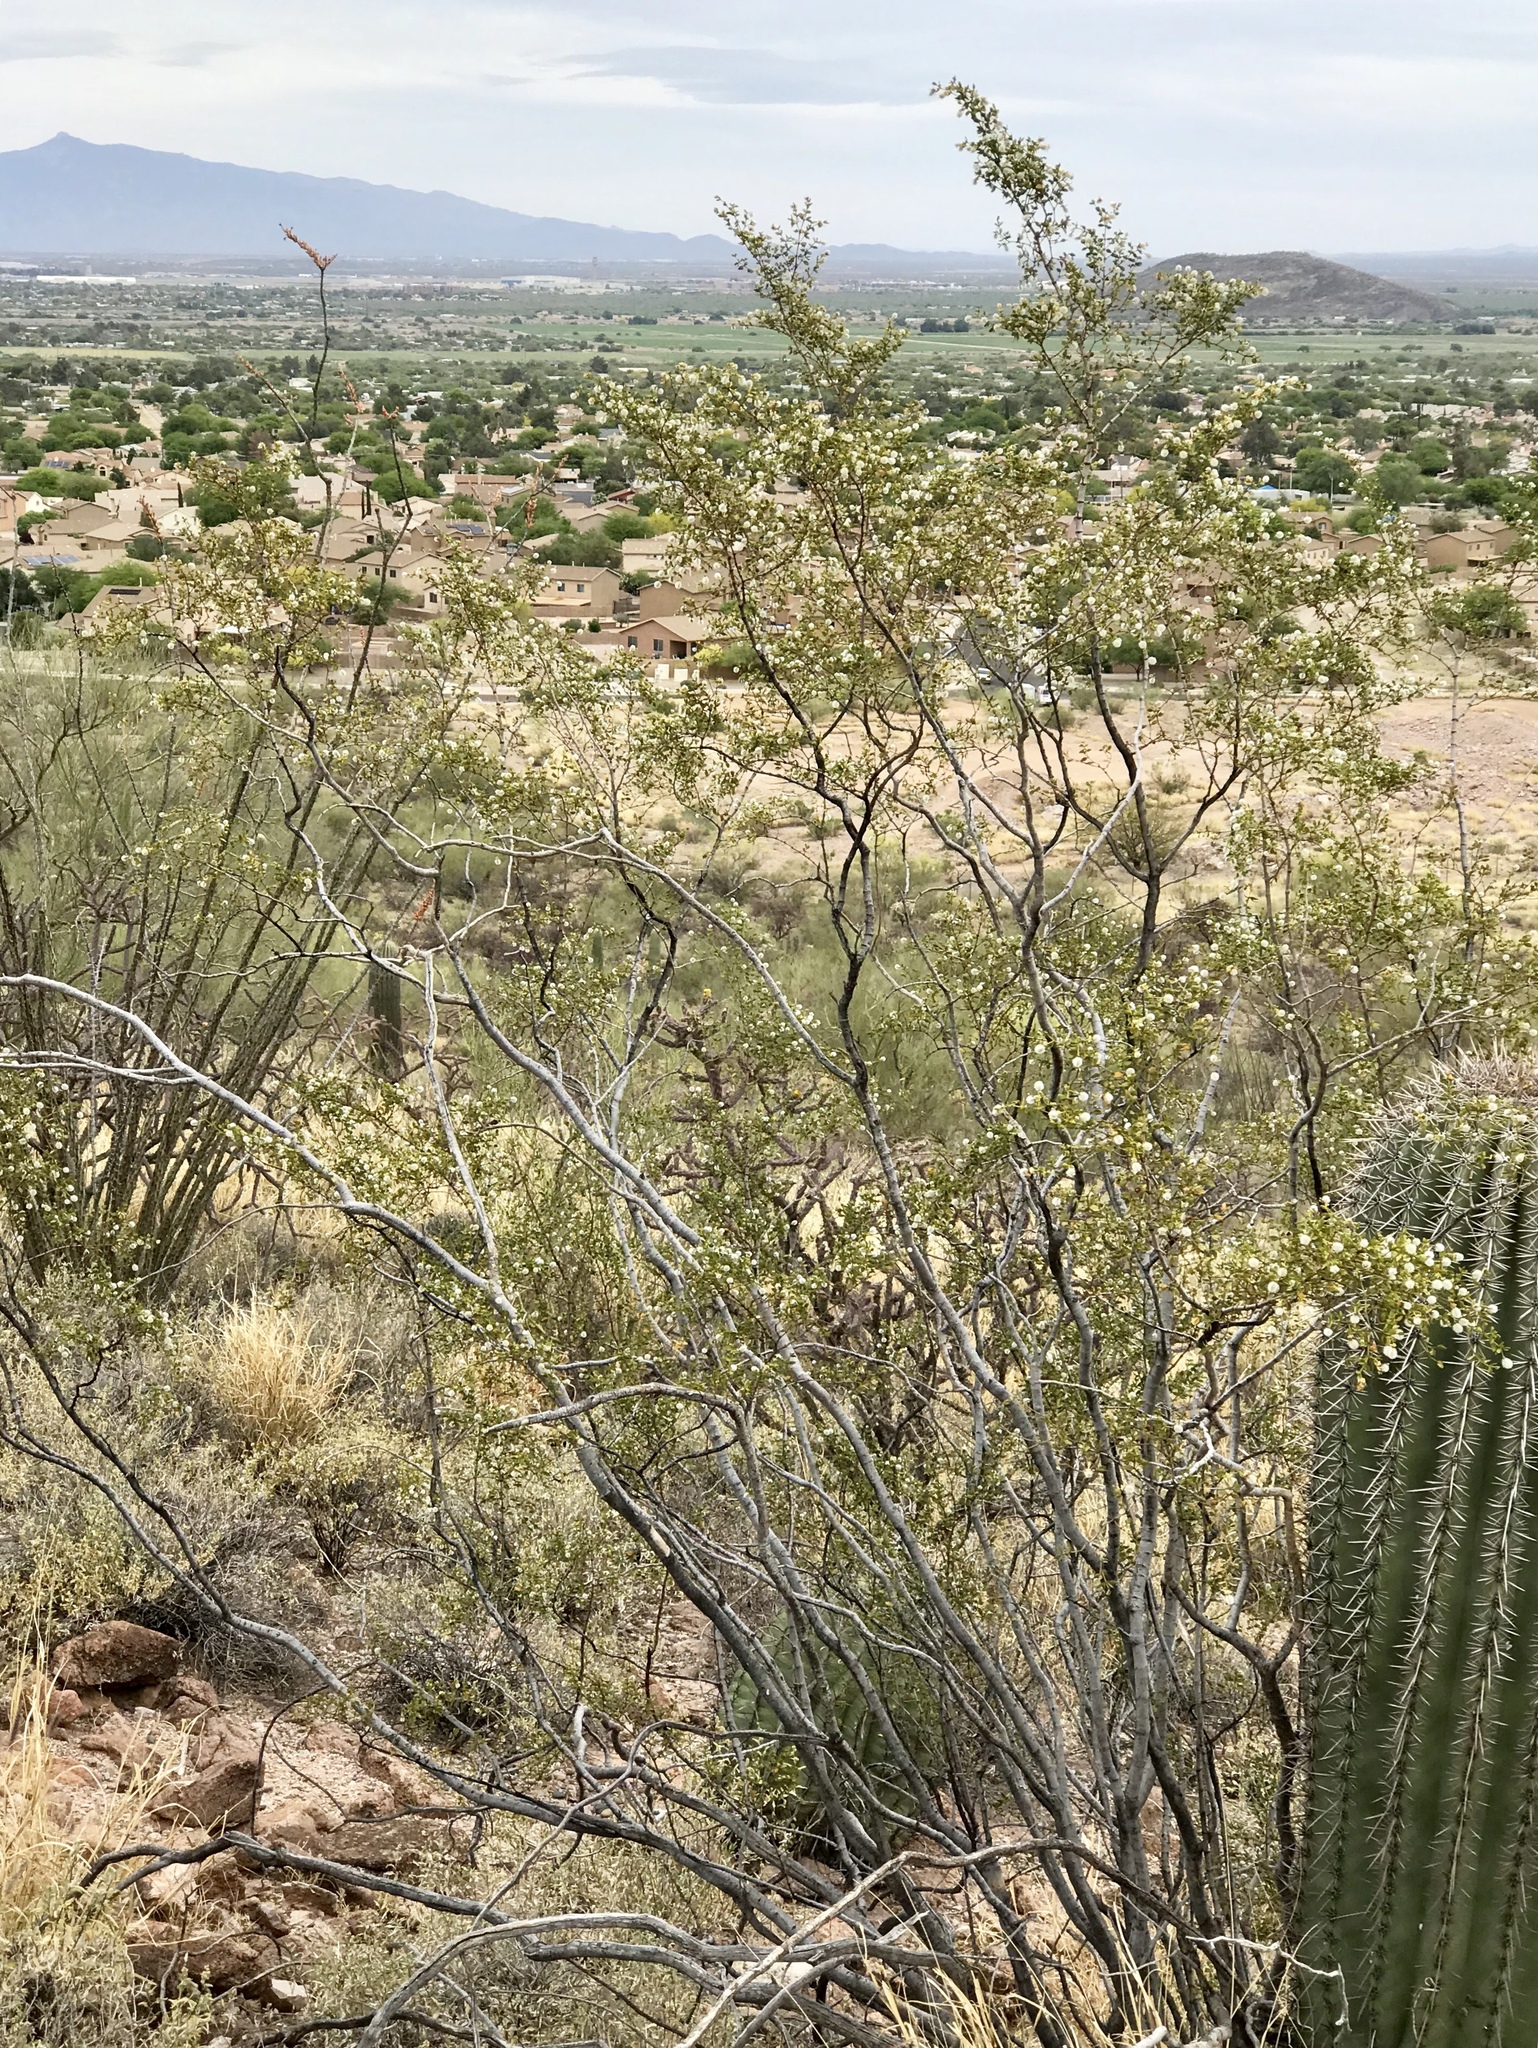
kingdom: Plantae
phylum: Tracheophyta
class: Magnoliopsida
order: Zygophyllales
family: Zygophyllaceae
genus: Larrea
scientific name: Larrea tridentata
